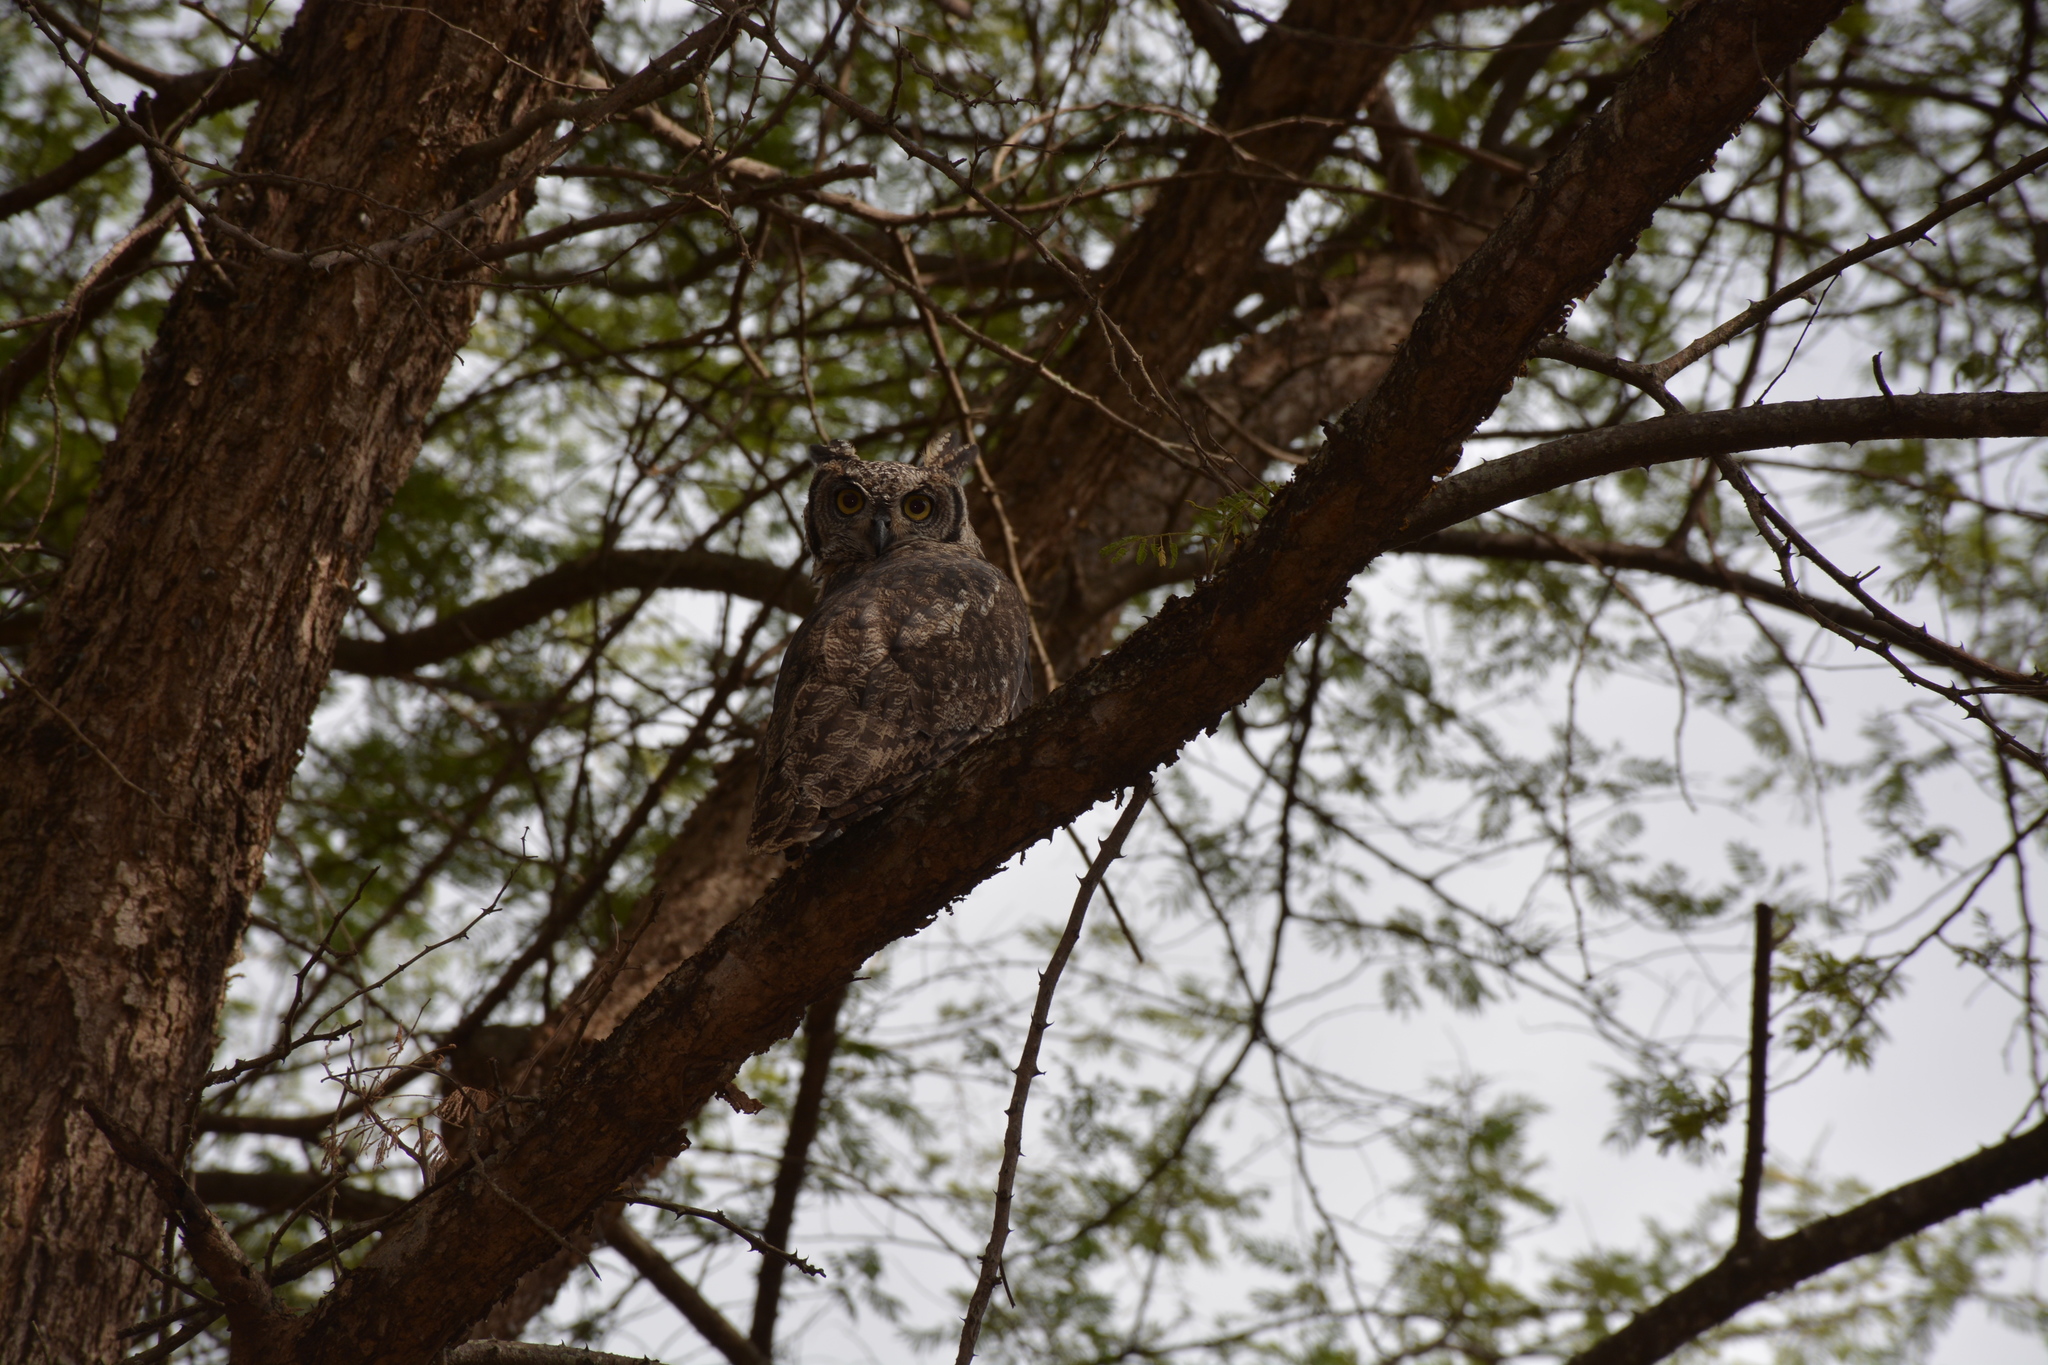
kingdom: Animalia
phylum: Chordata
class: Aves
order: Strigiformes
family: Strigidae
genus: Bubo
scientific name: Bubo africanus
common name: Spotted eagle-owl
